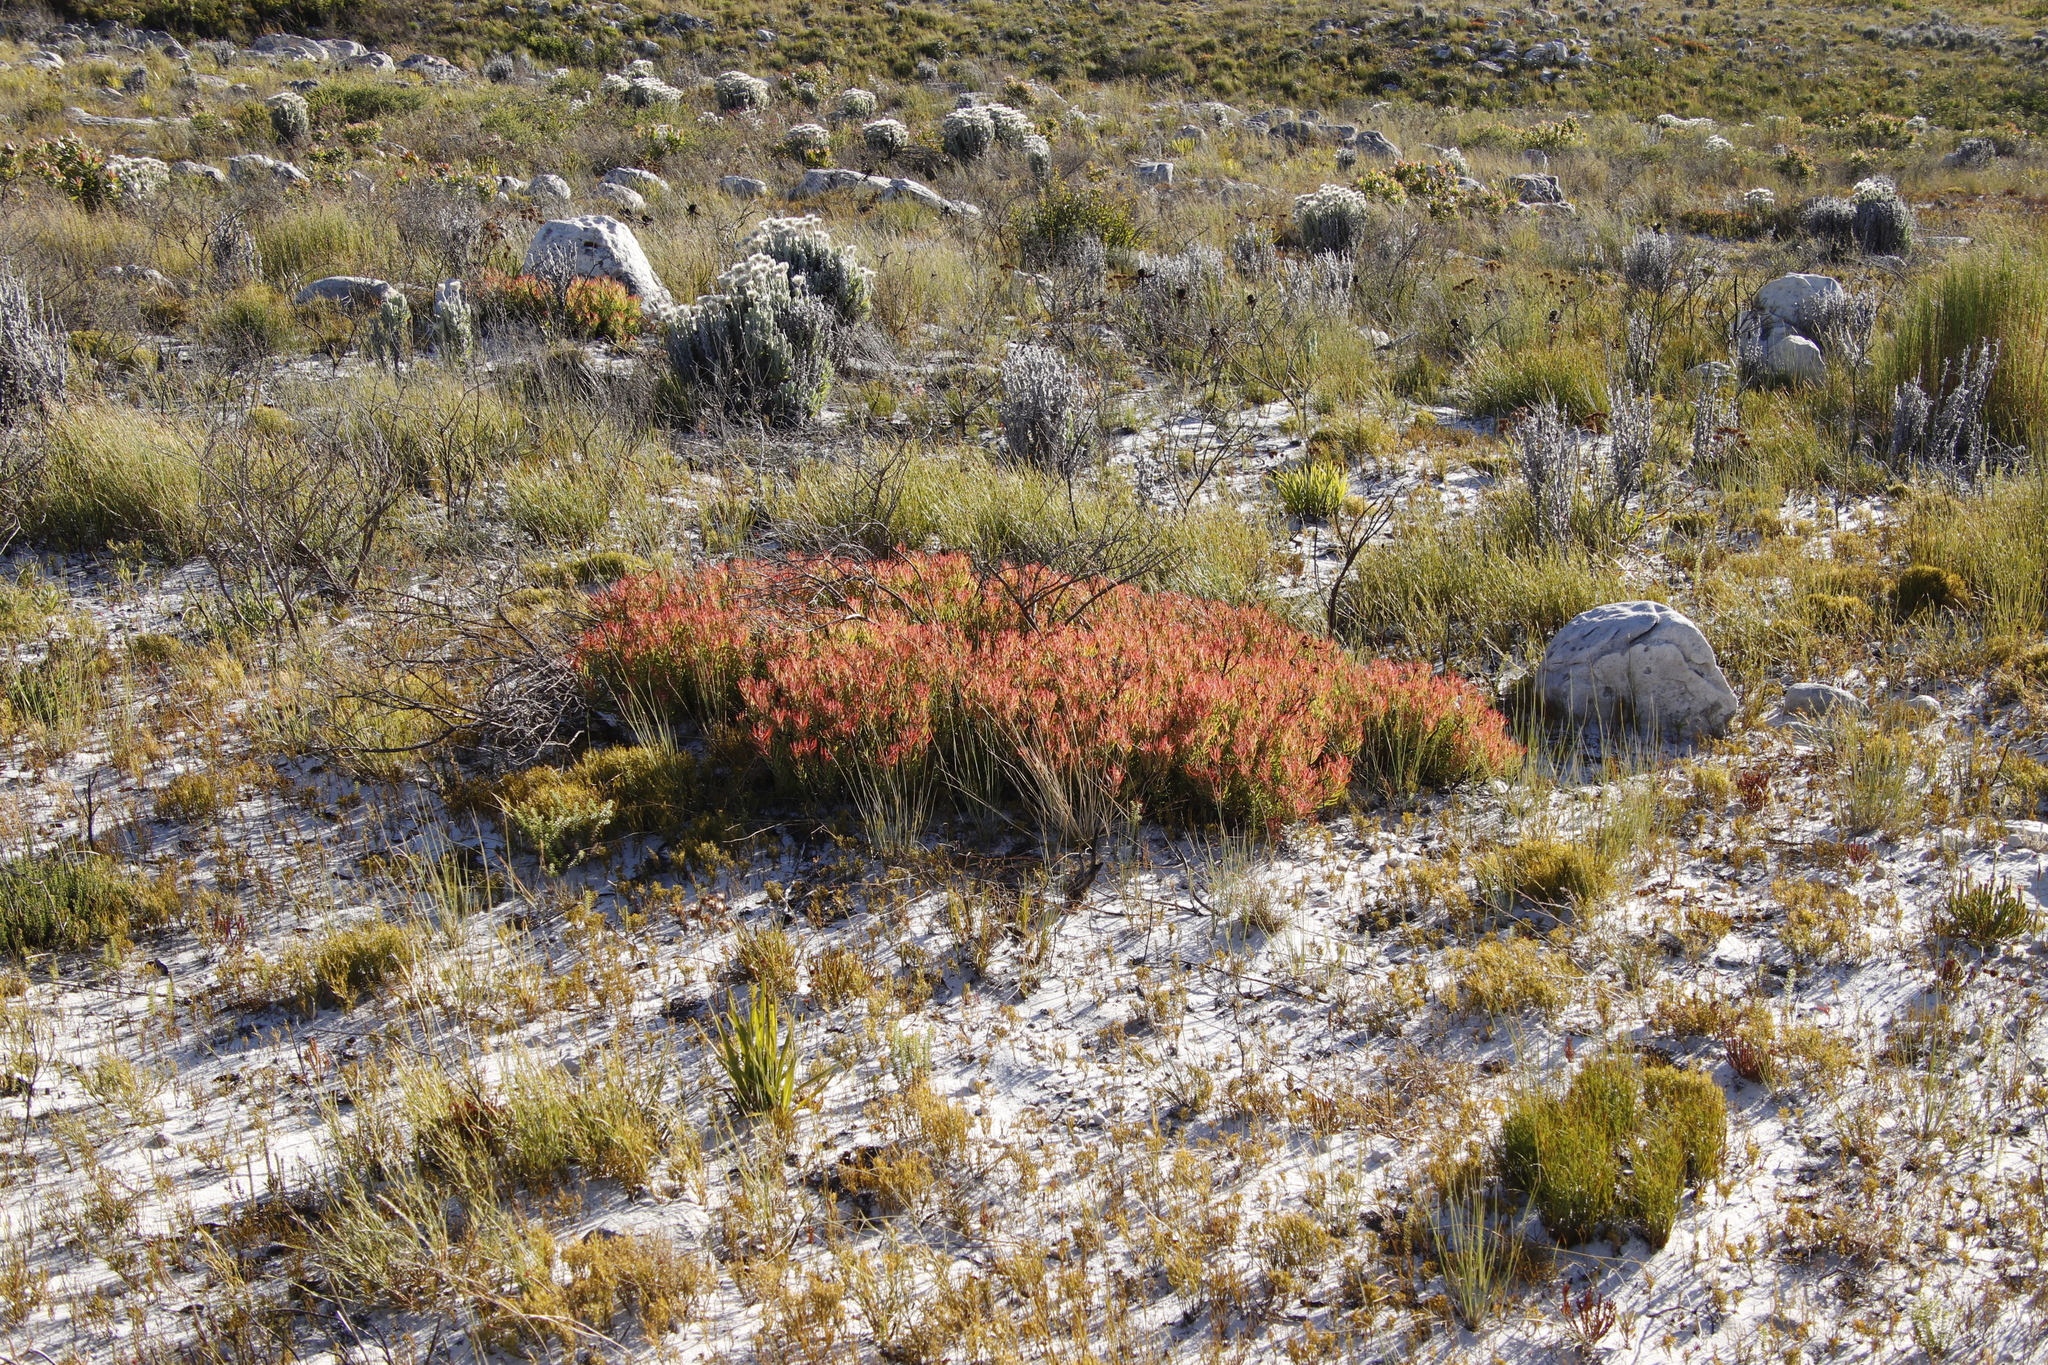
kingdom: Plantae
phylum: Tracheophyta
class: Magnoliopsida
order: Proteales
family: Proteaceae
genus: Leucadendron
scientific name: Leucadendron salignum
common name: Common sunshine conebush
